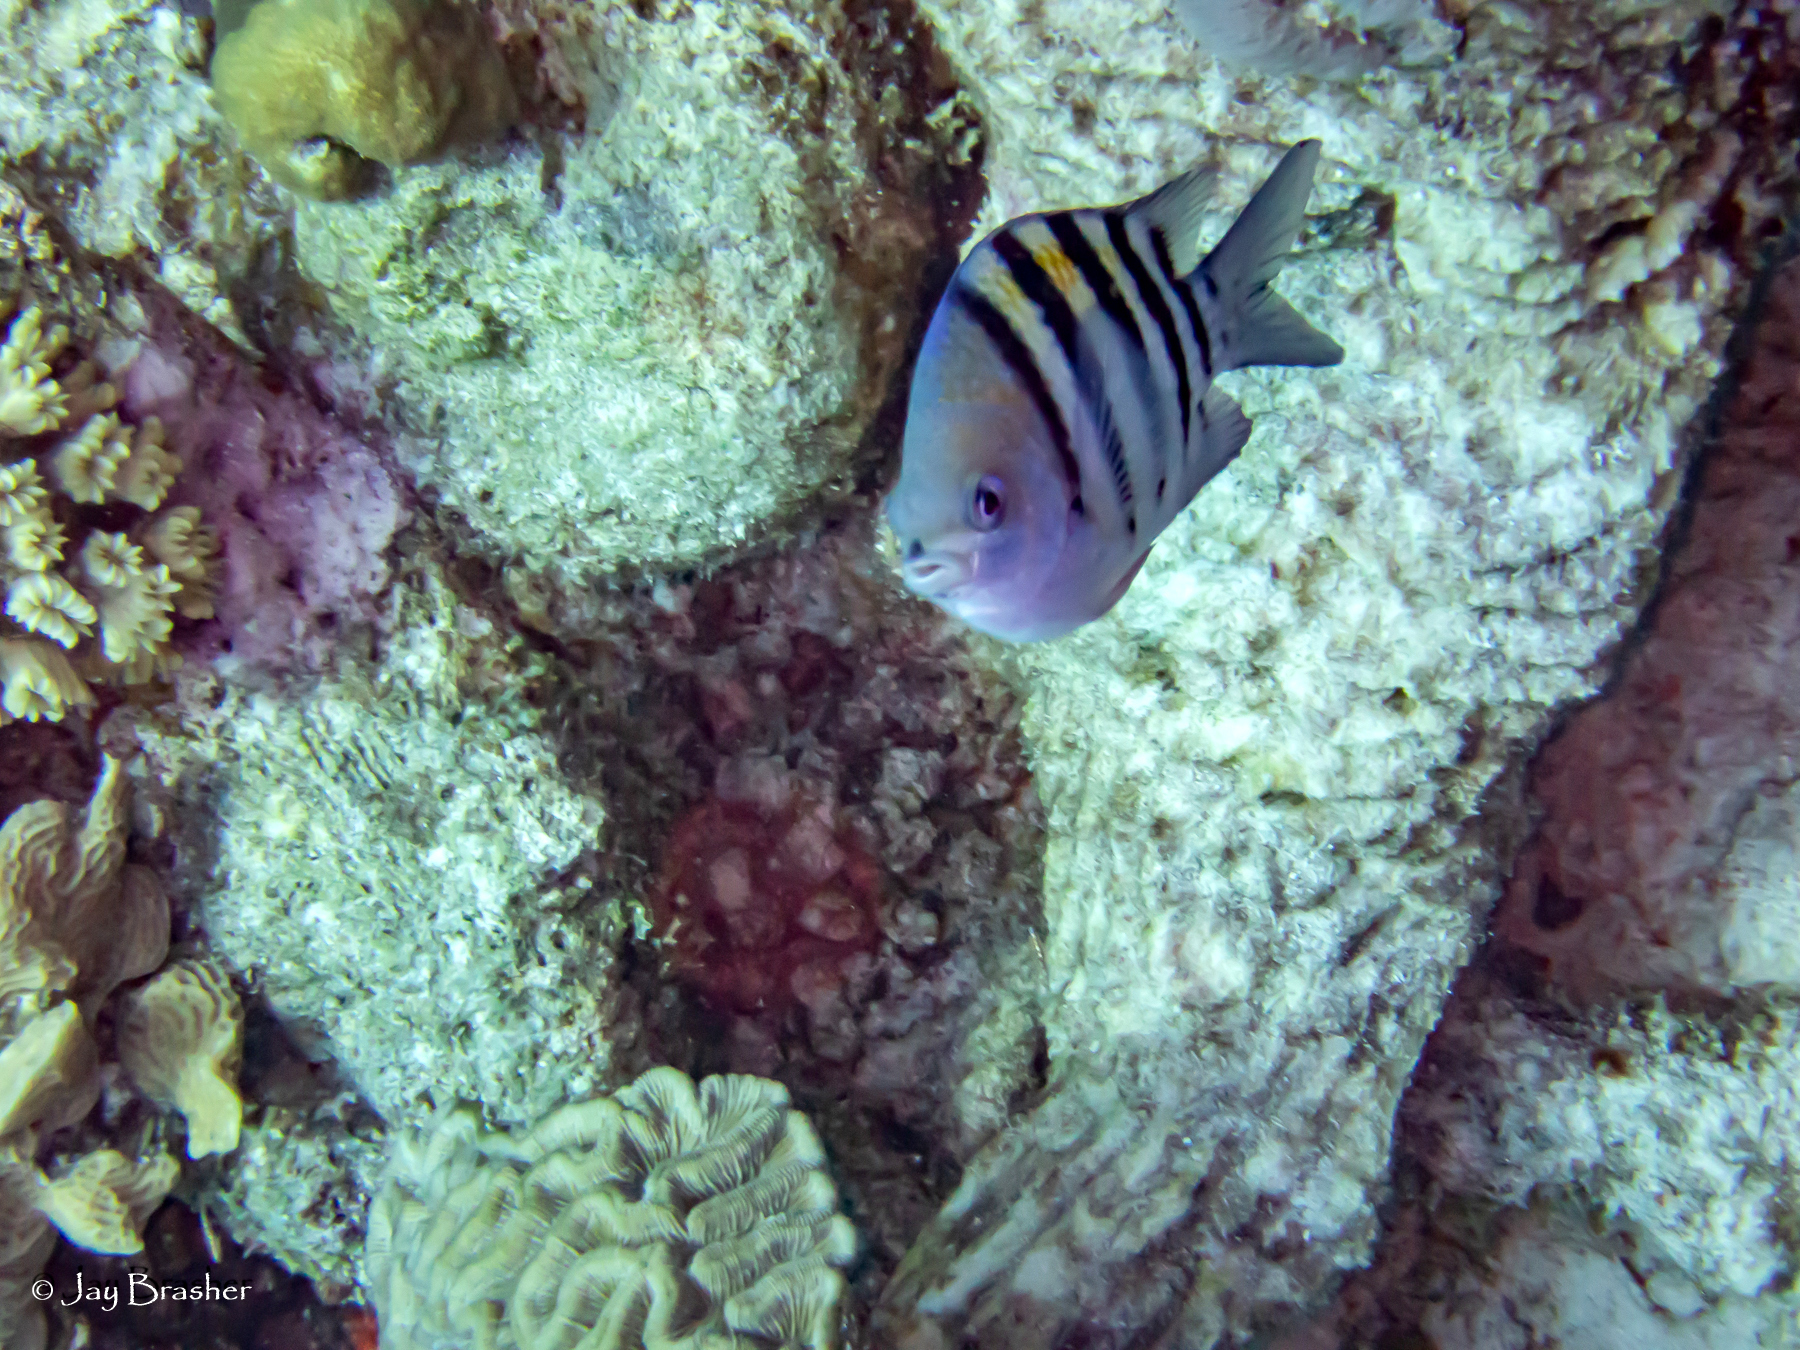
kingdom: Animalia
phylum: Chordata
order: Perciformes
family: Pomacentridae
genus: Abudefduf
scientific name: Abudefduf saxatilis
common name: Sergeant major
